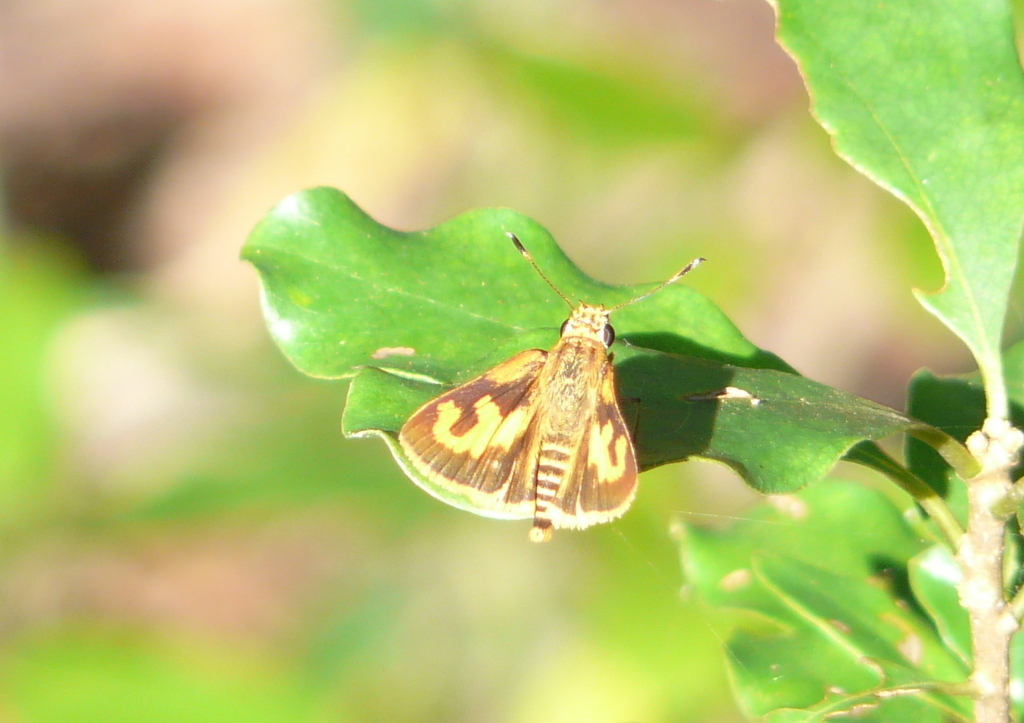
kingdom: Animalia
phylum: Arthropoda
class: Insecta
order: Lepidoptera
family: Hesperiidae
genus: Acada
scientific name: Acada biseriatus
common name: Axehead orange
